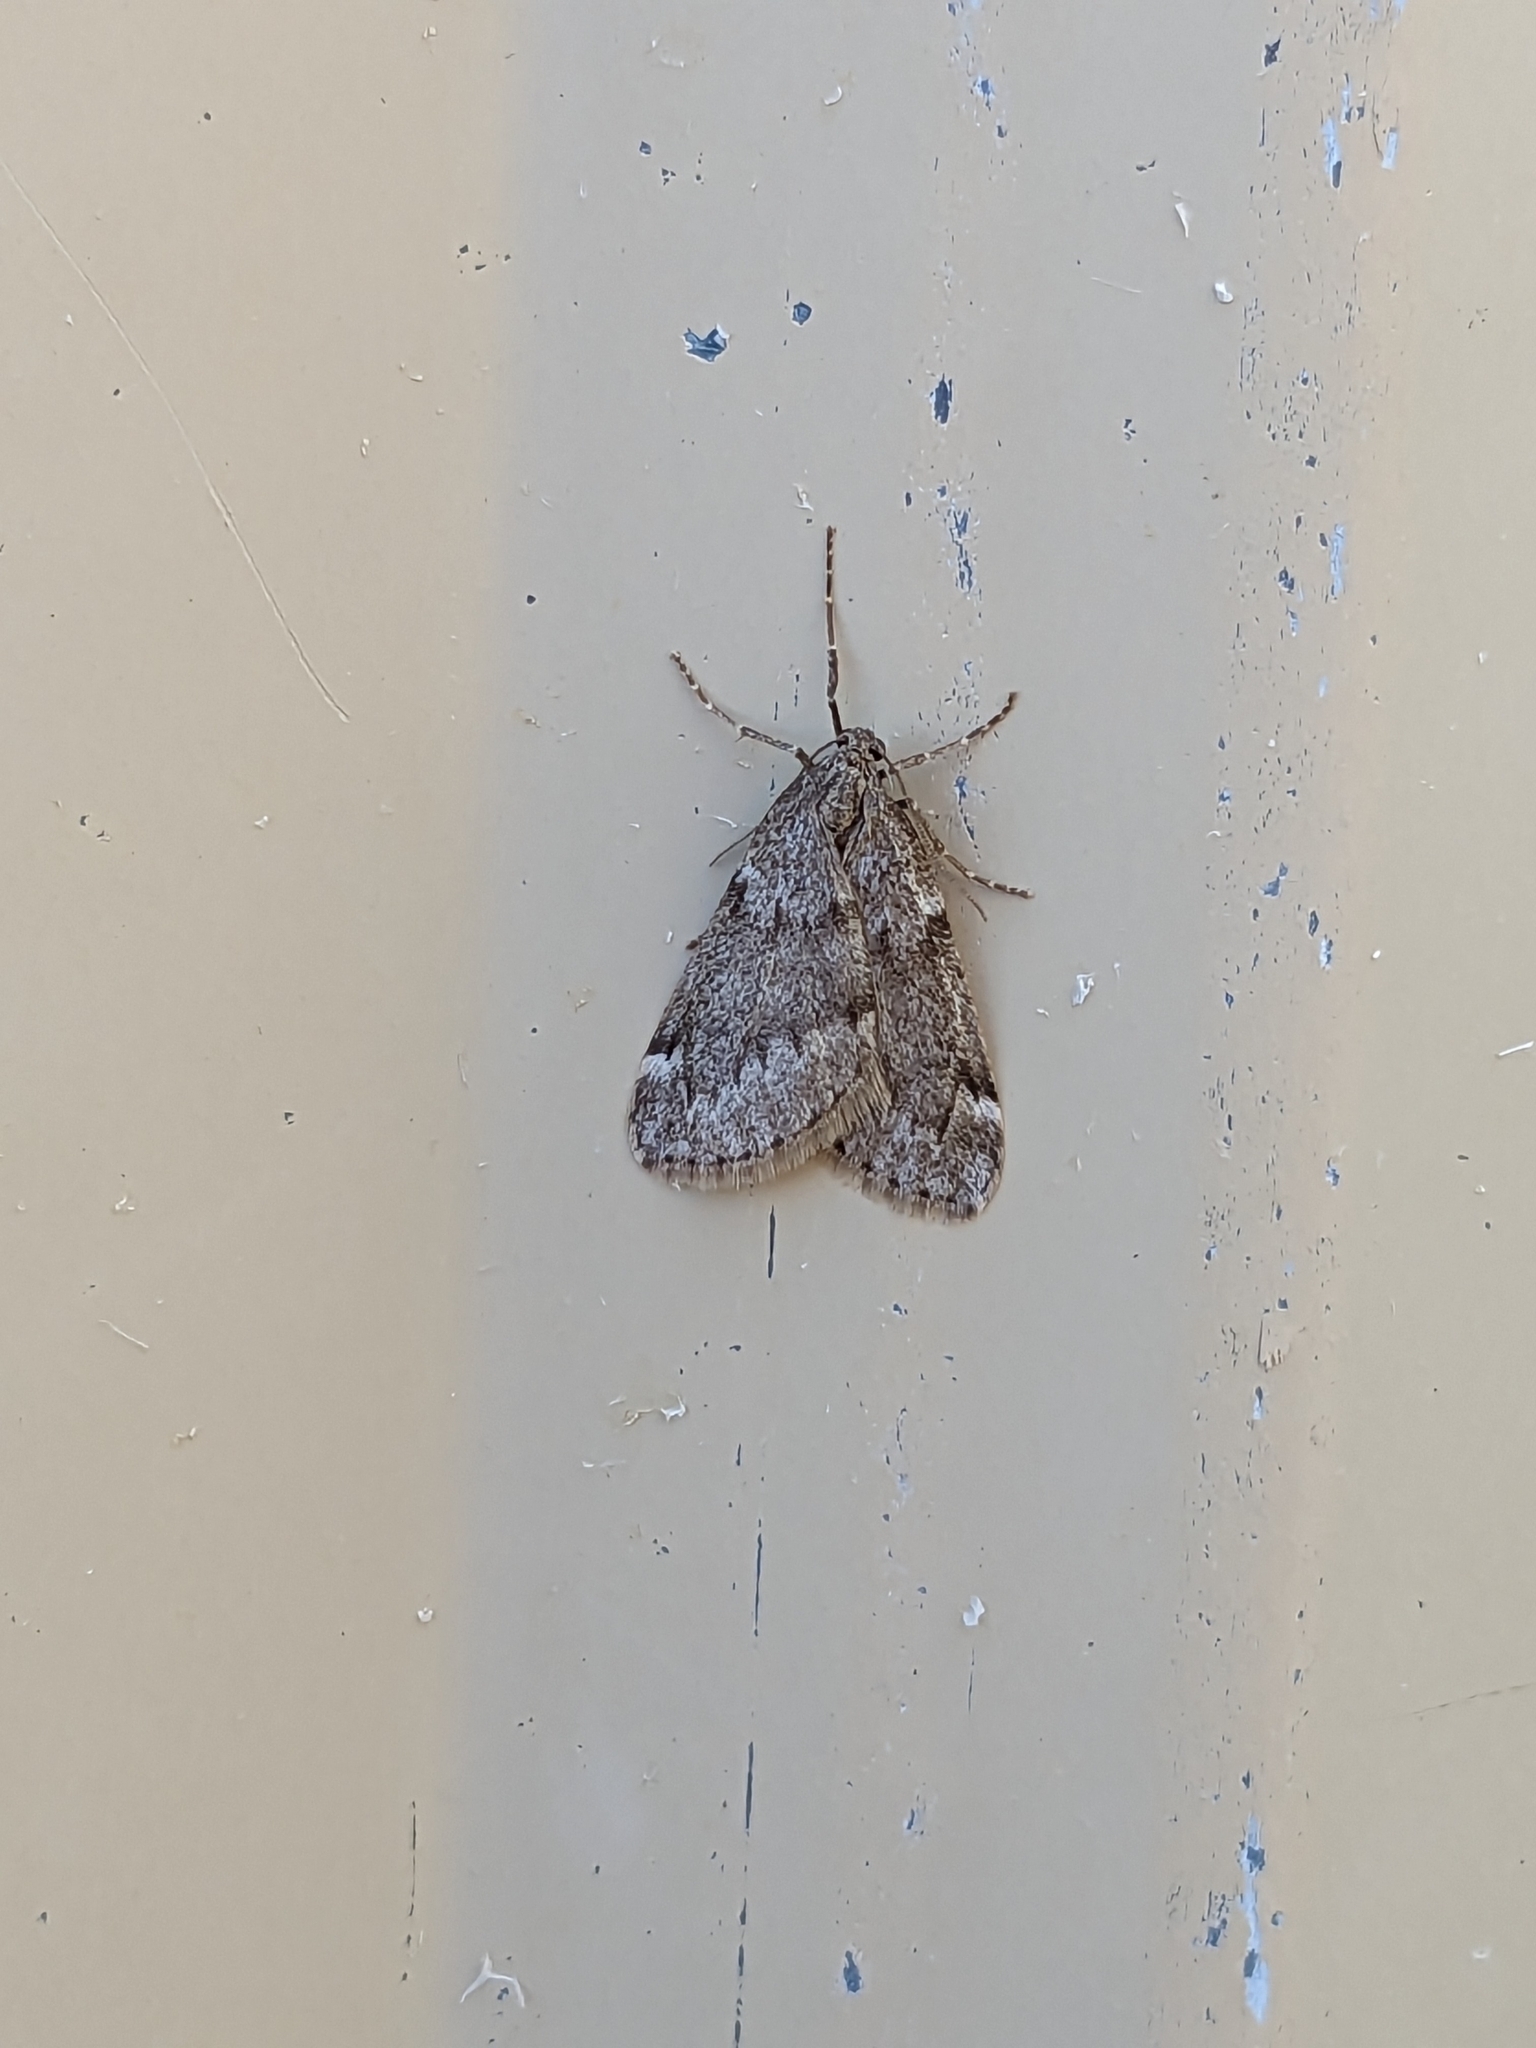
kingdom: Animalia
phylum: Arthropoda
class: Insecta
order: Lepidoptera
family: Geometridae
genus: Alsophila
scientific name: Alsophila pometaria
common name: Fall cankerworm
